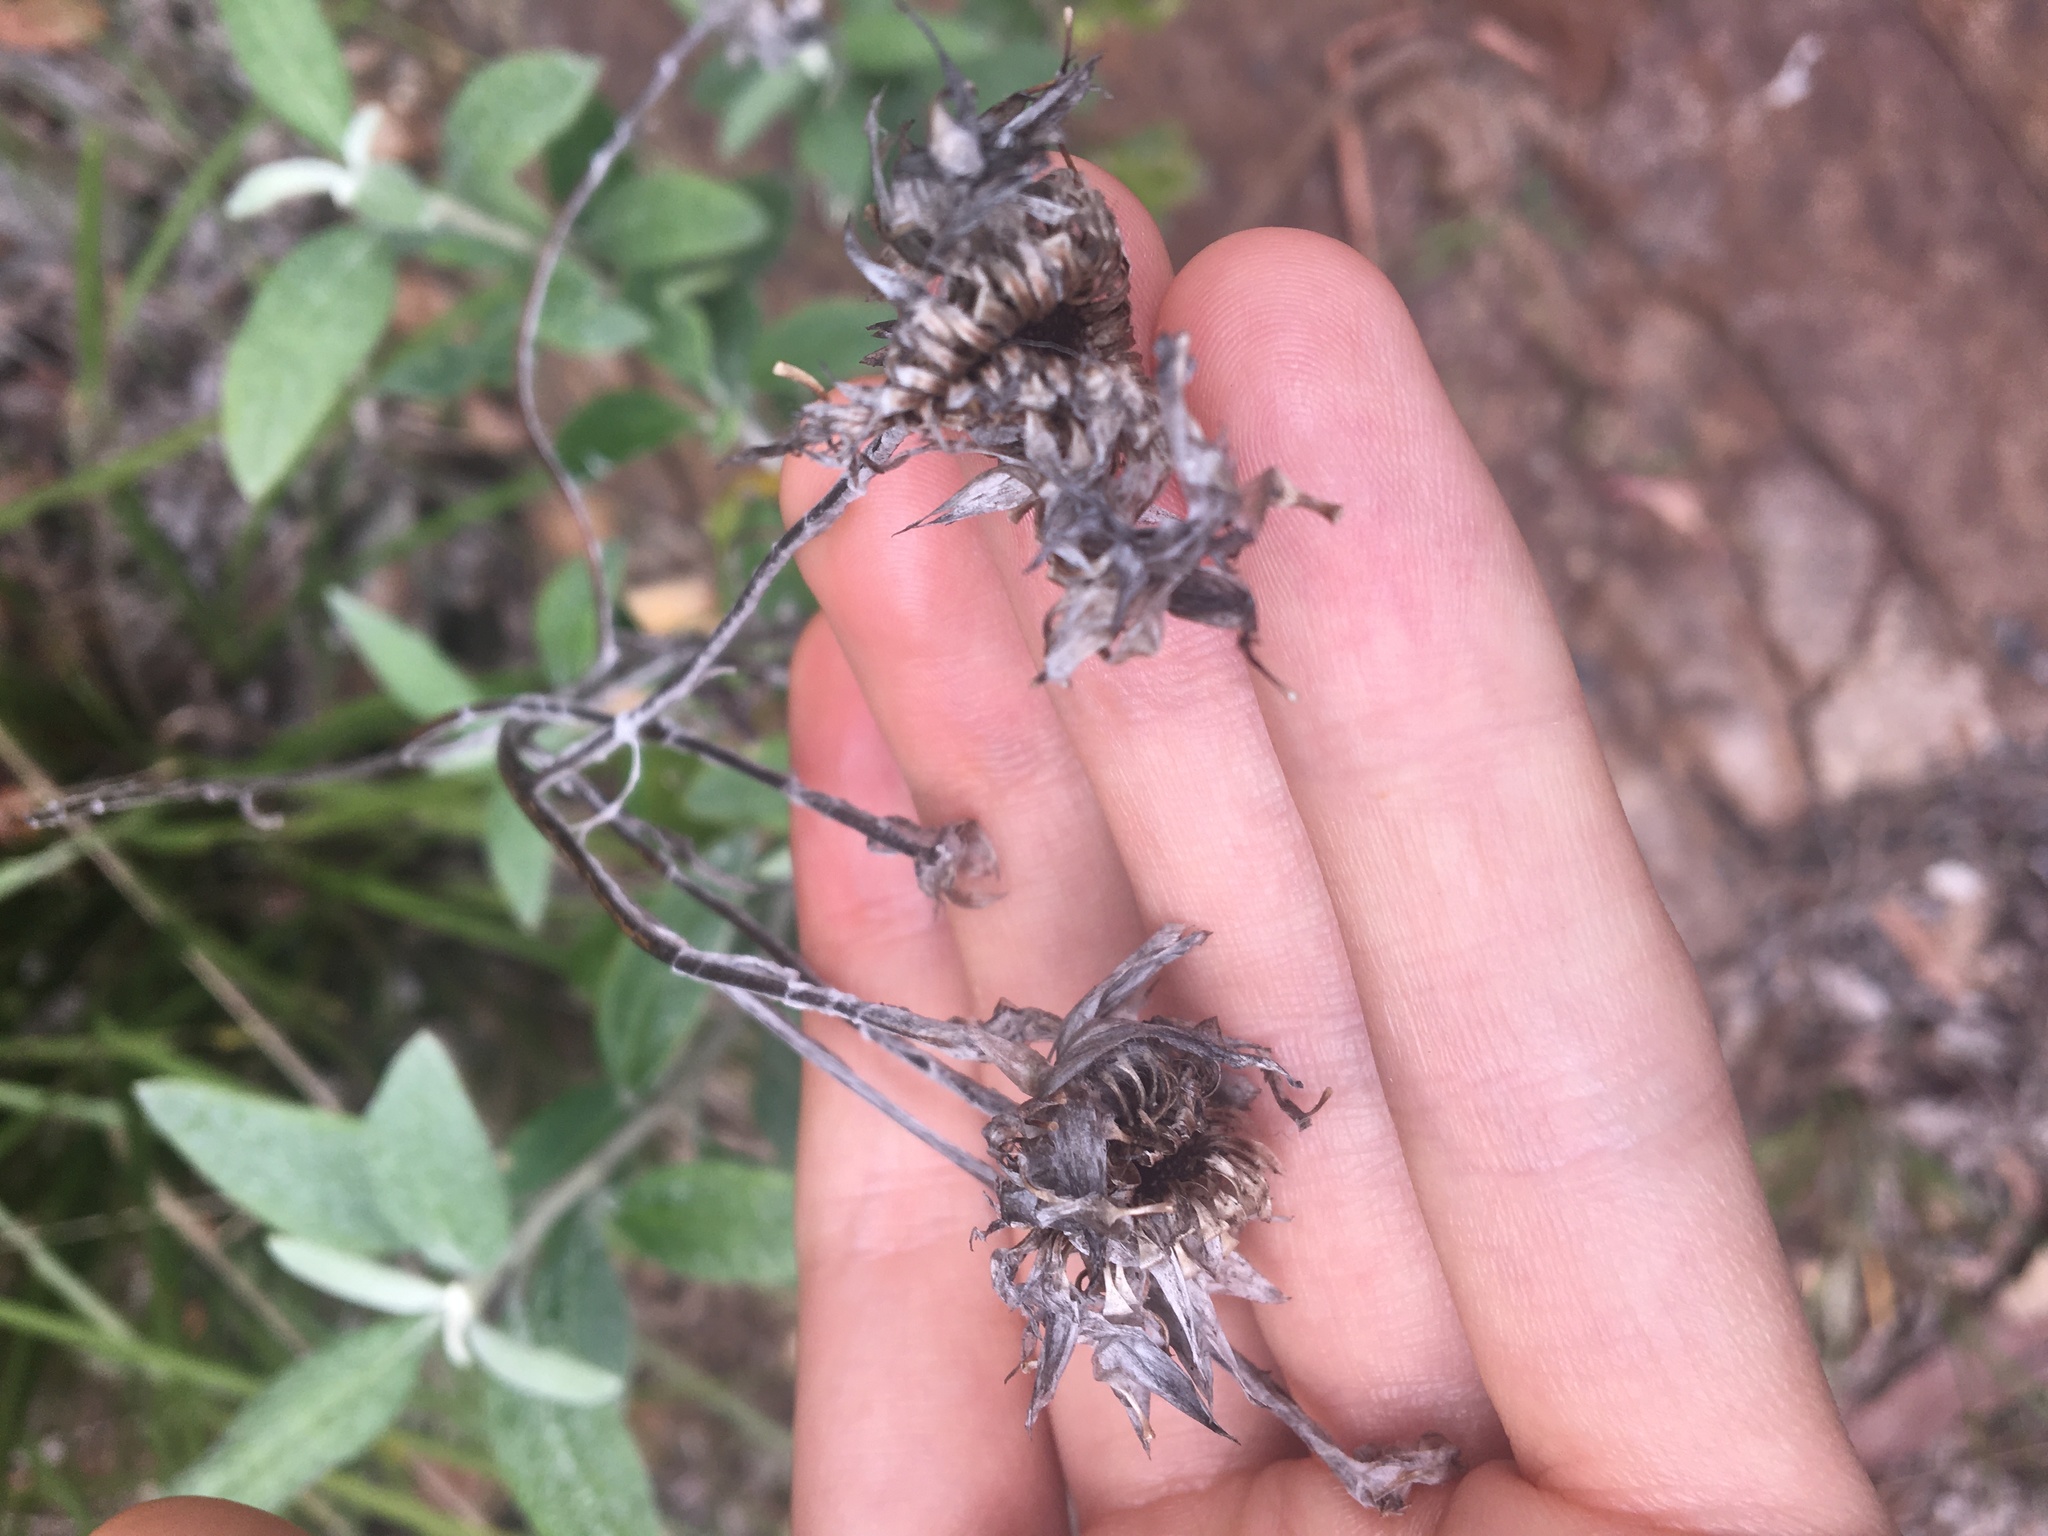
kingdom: Plantae
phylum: Tracheophyta
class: Magnoliopsida
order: Asterales
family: Asteraceae
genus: Leucozoma
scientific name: Leucozoma elatum
